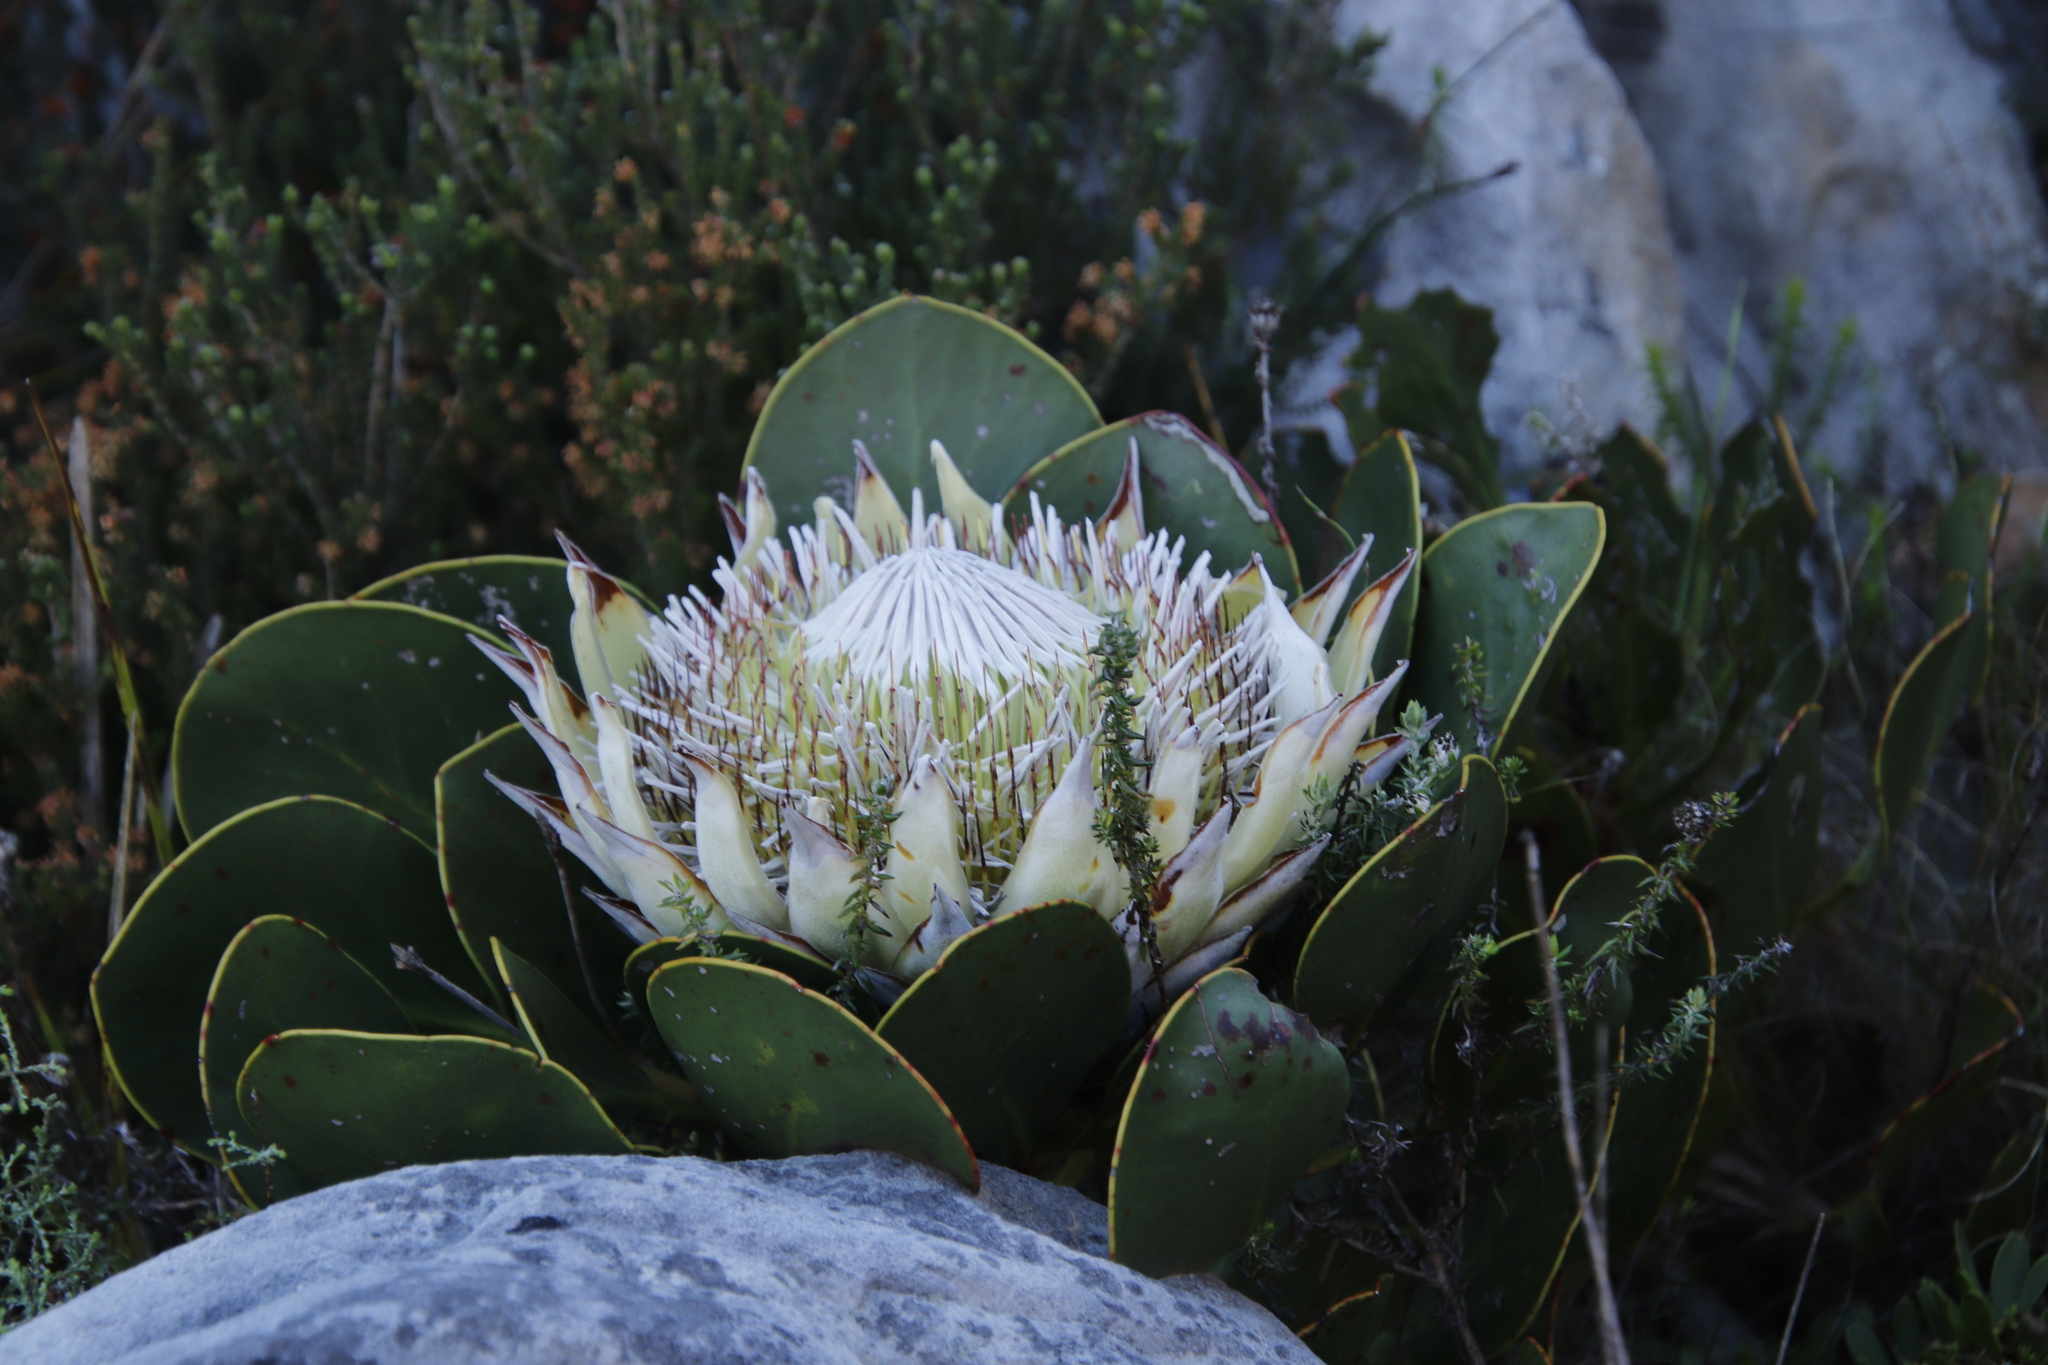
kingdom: Plantae
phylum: Tracheophyta
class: Magnoliopsida
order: Proteales
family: Proteaceae
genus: Protea
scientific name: Protea cynaroides
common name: King protea
